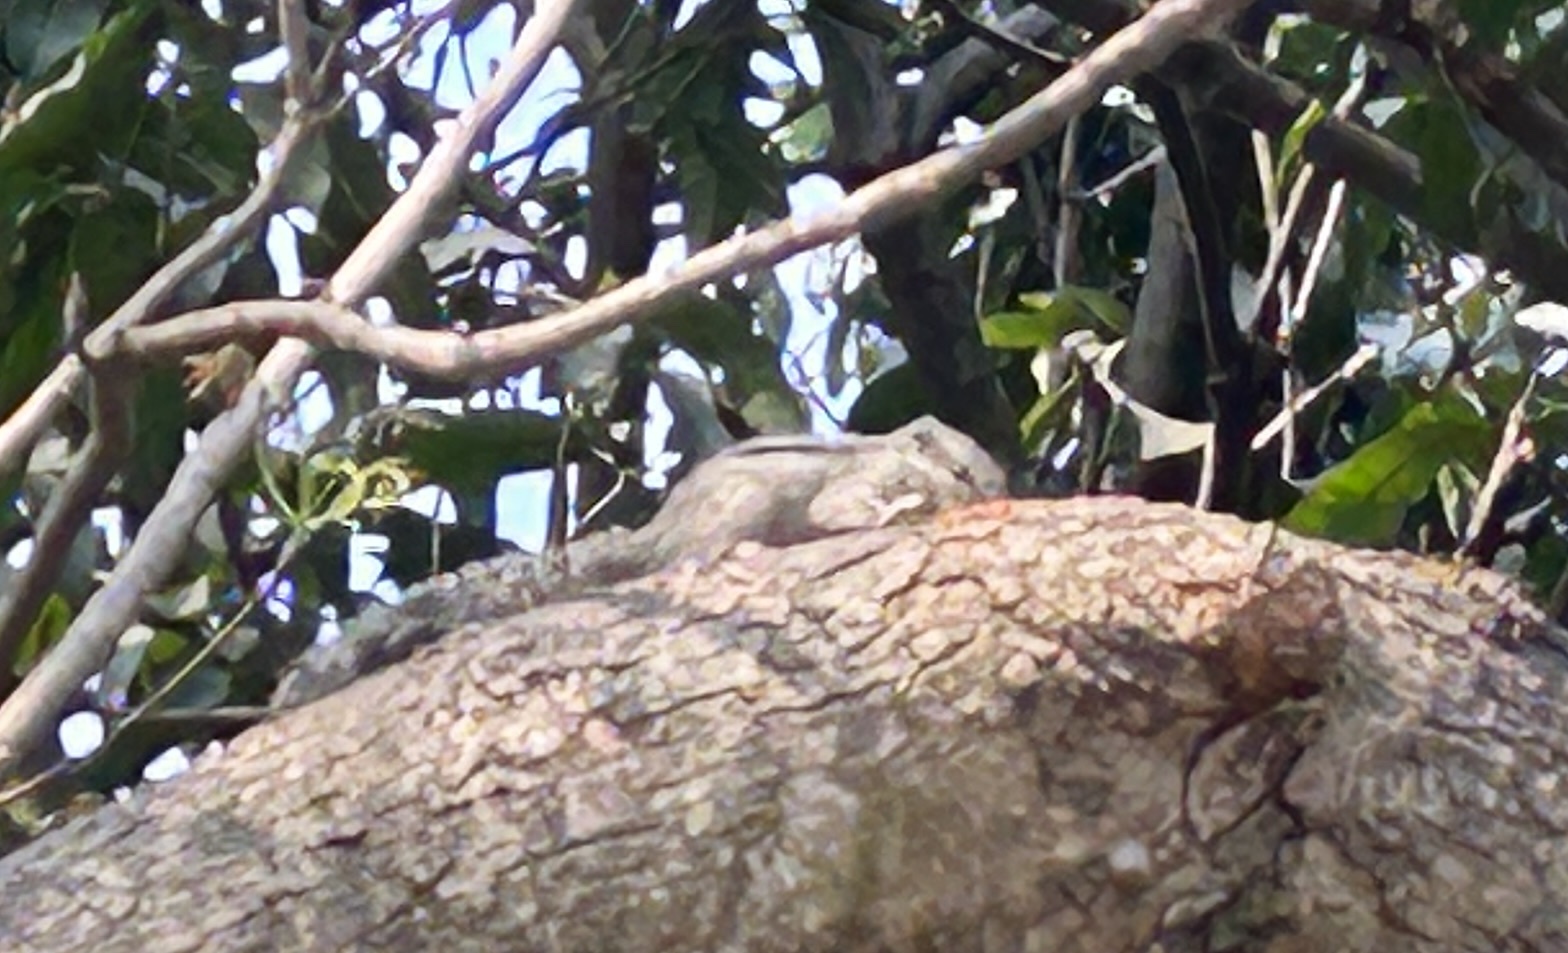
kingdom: Animalia
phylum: Chordata
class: Mammalia
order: Rodentia
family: Sciuridae
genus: Funambulus
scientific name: Funambulus pennantii
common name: Northern palm squirrel
